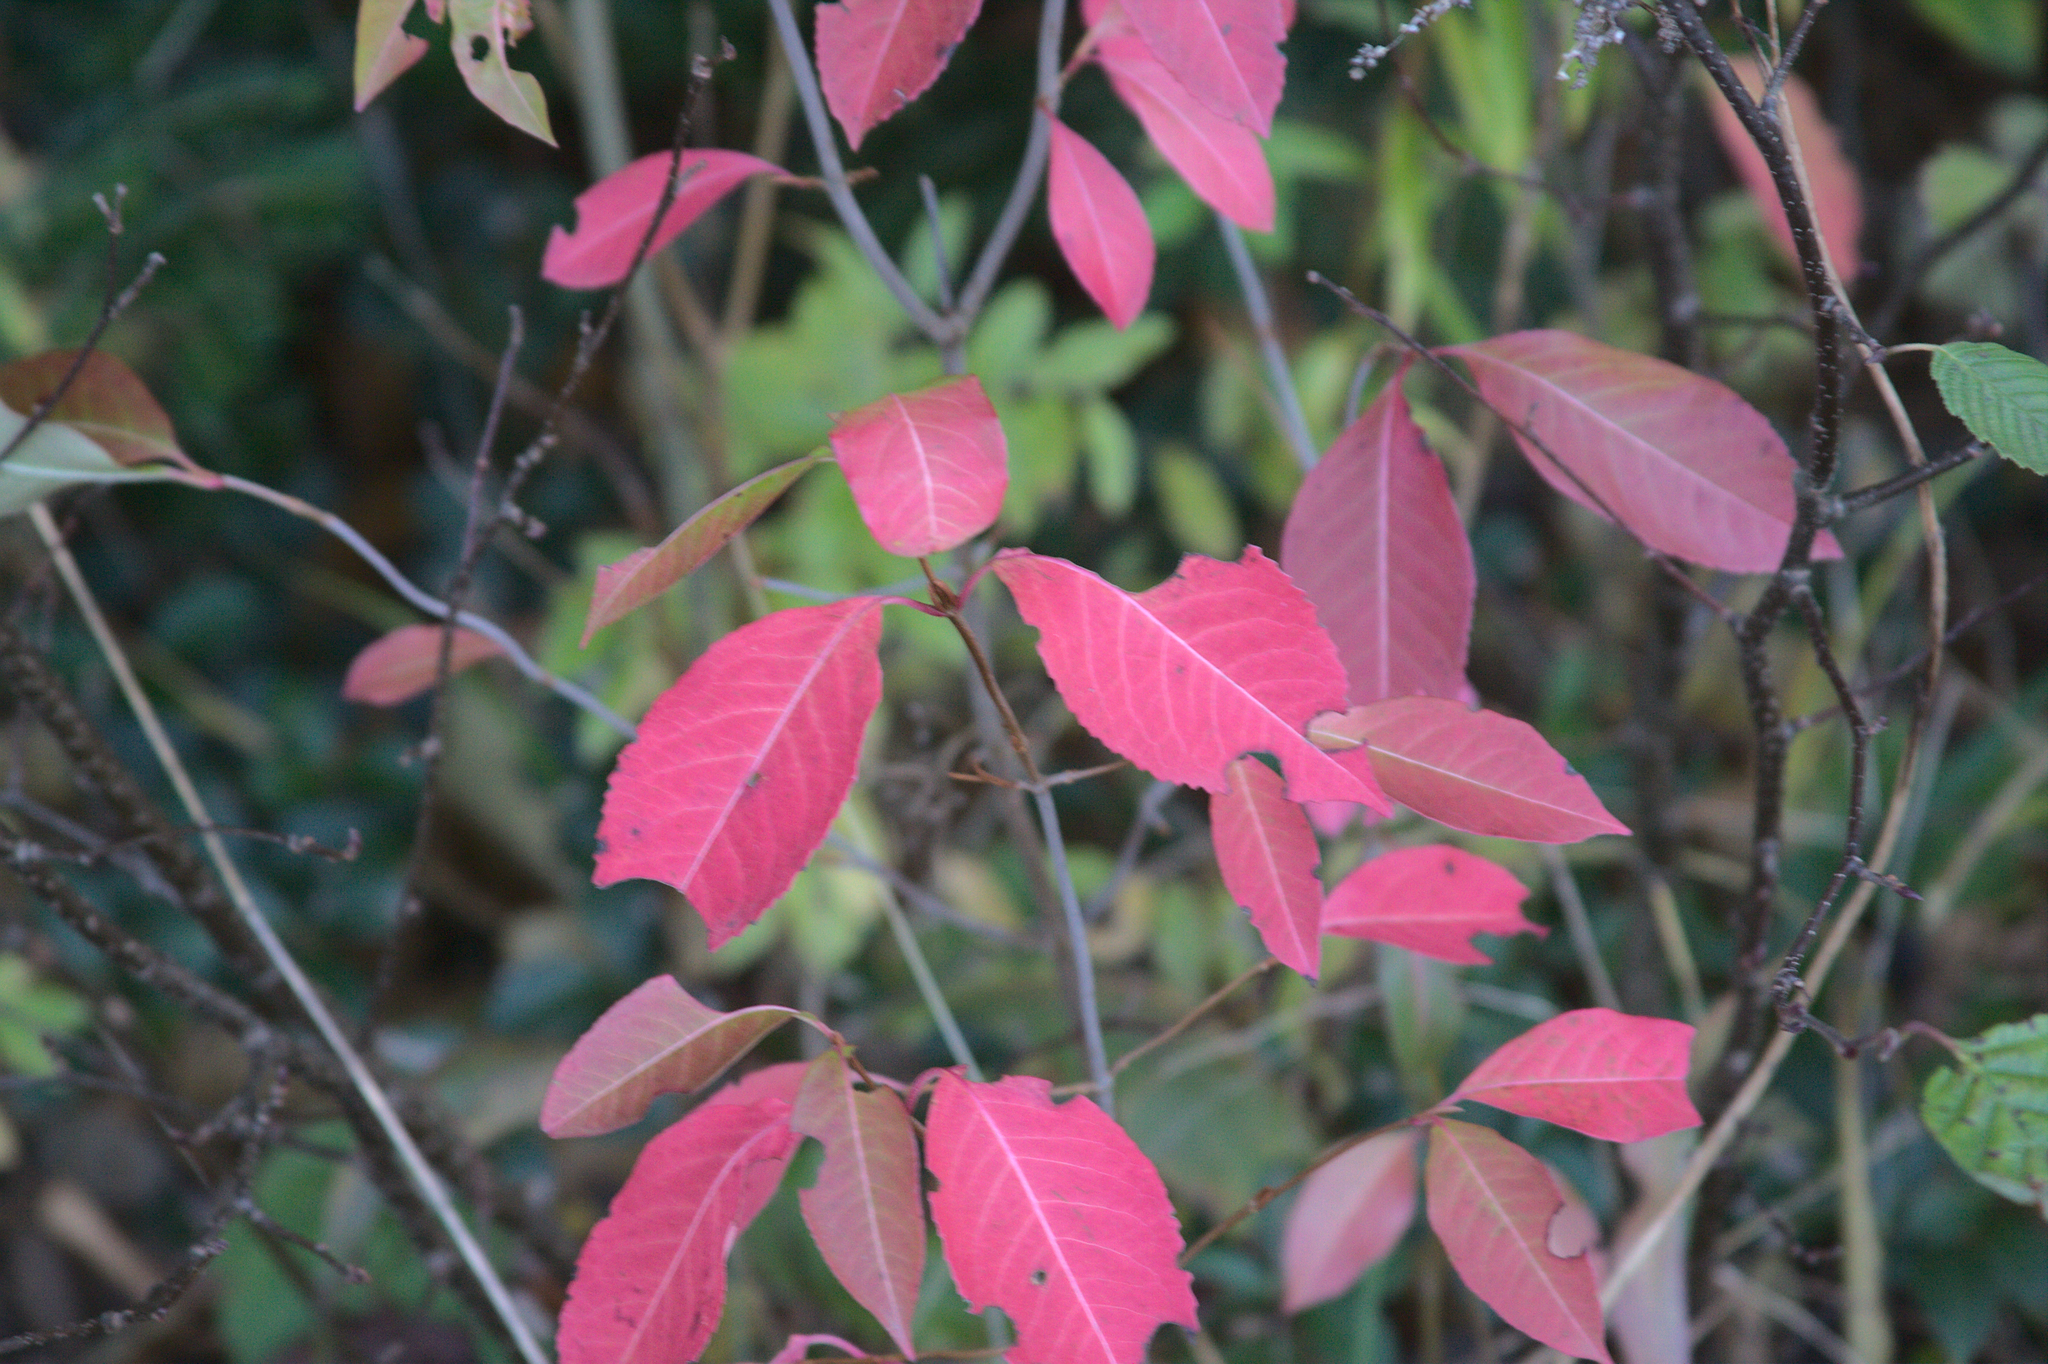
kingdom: Plantae
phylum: Tracheophyta
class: Magnoliopsida
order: Dipsacales
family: Viburnaceae
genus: Viburnum
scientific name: Viburnum cassinoides
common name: Swamp haw
